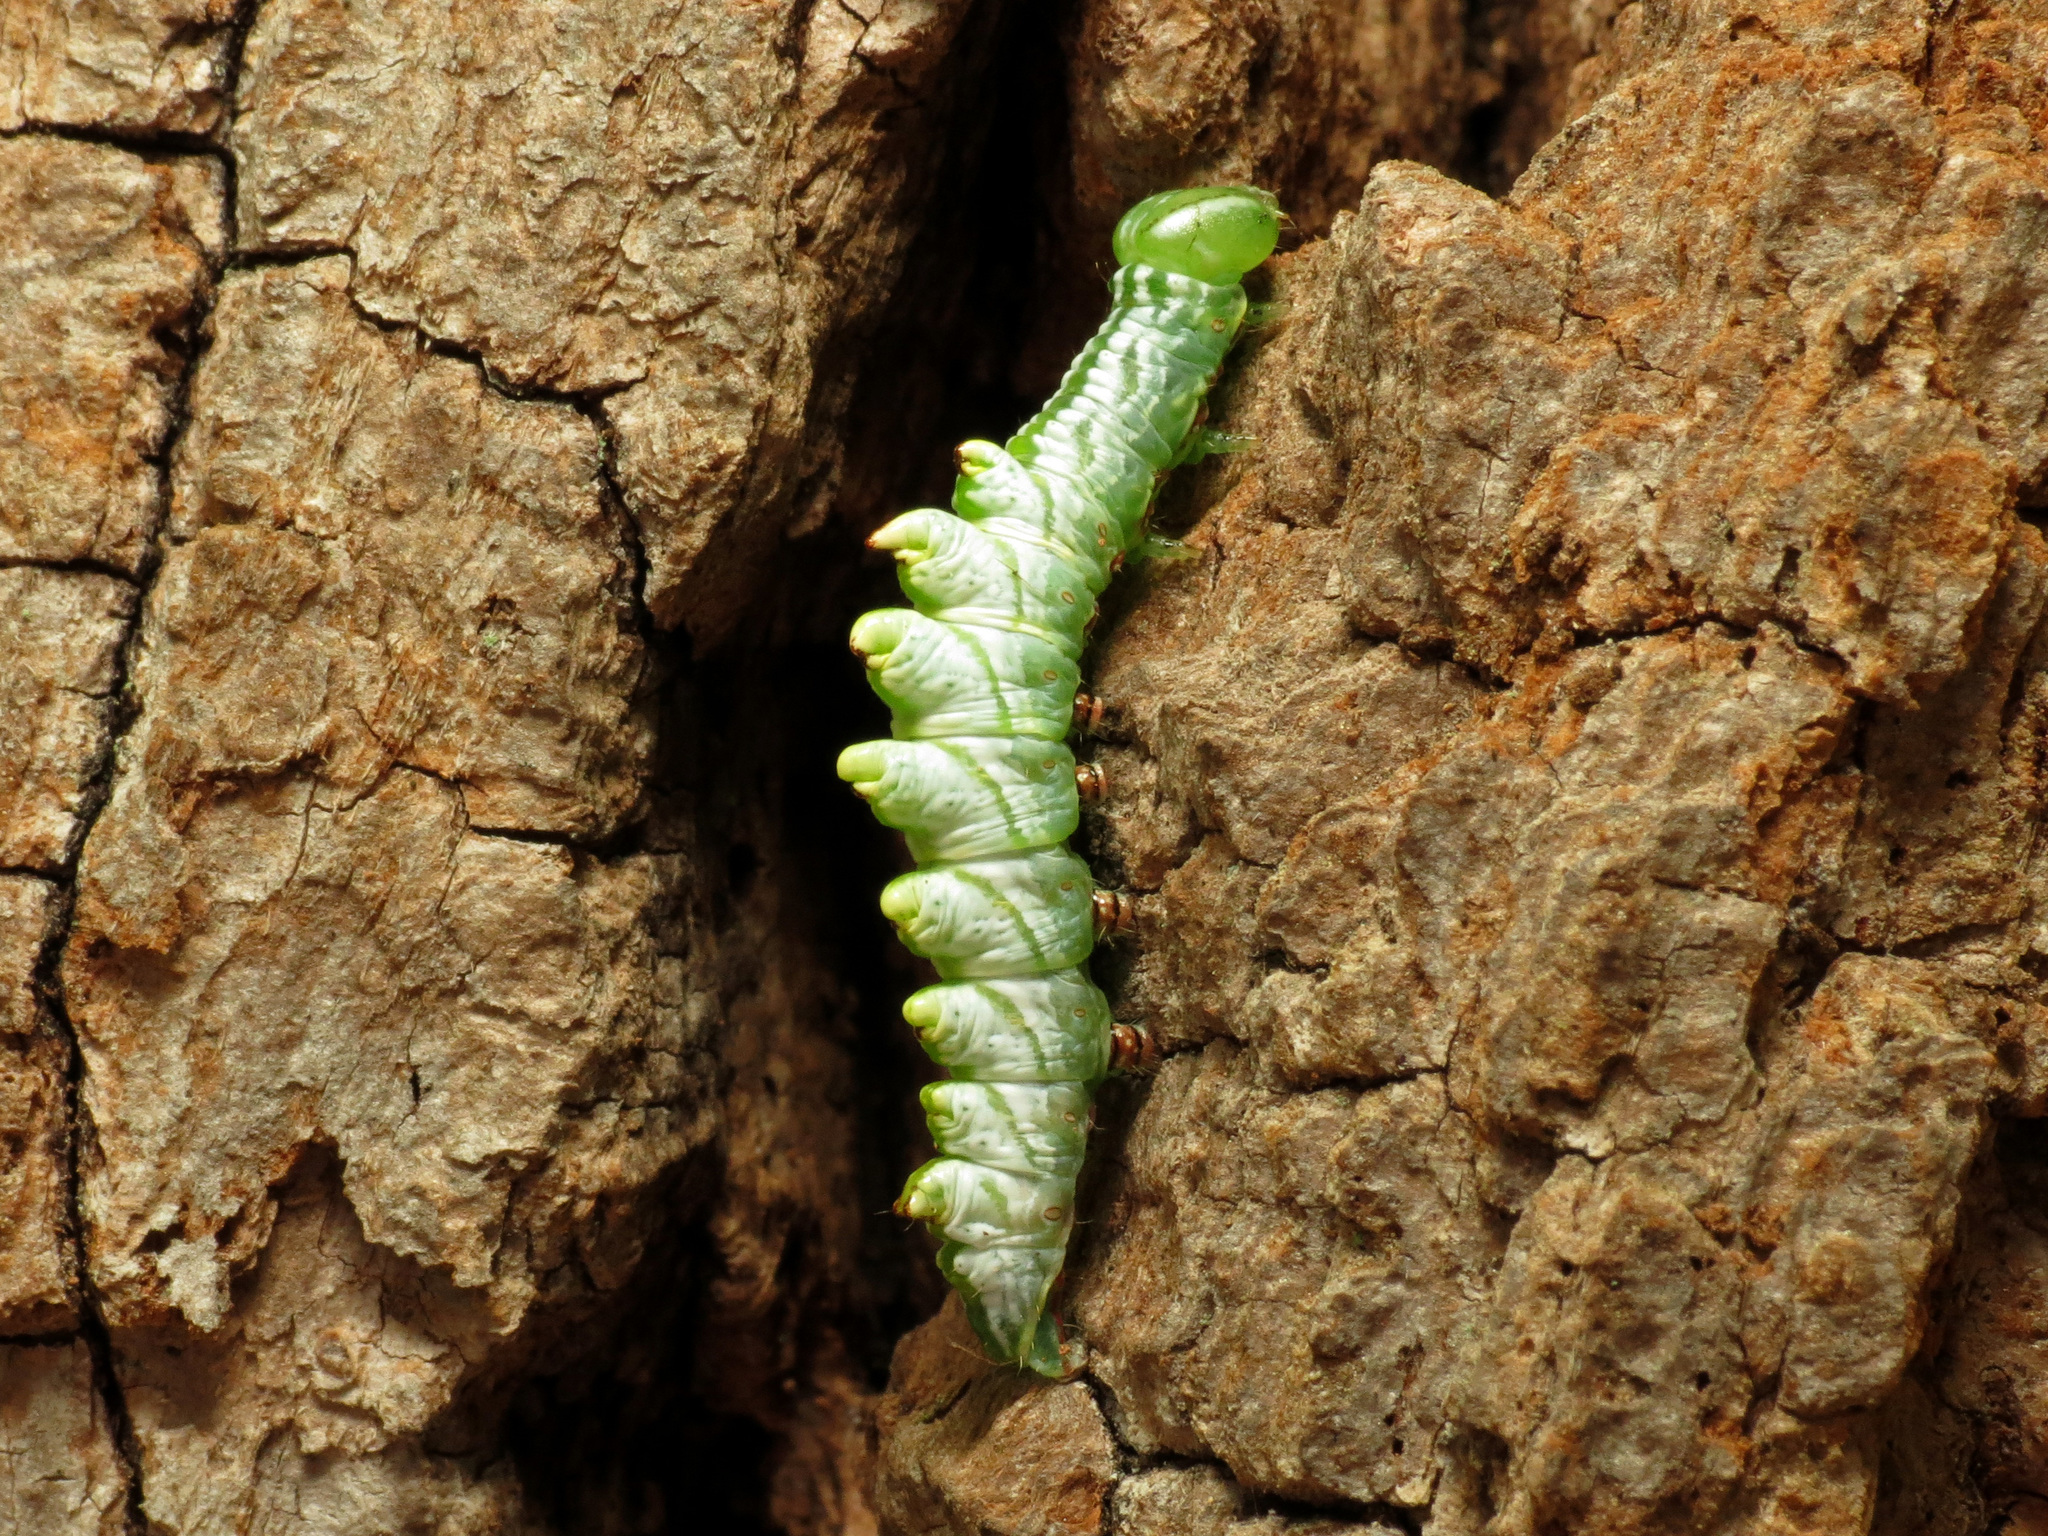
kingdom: Animalia
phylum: Arthropoda
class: Insecta
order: Lepidoptera
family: Notodontidae
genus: Nerice
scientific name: Nerice bidentata
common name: Double-toothed prominent
